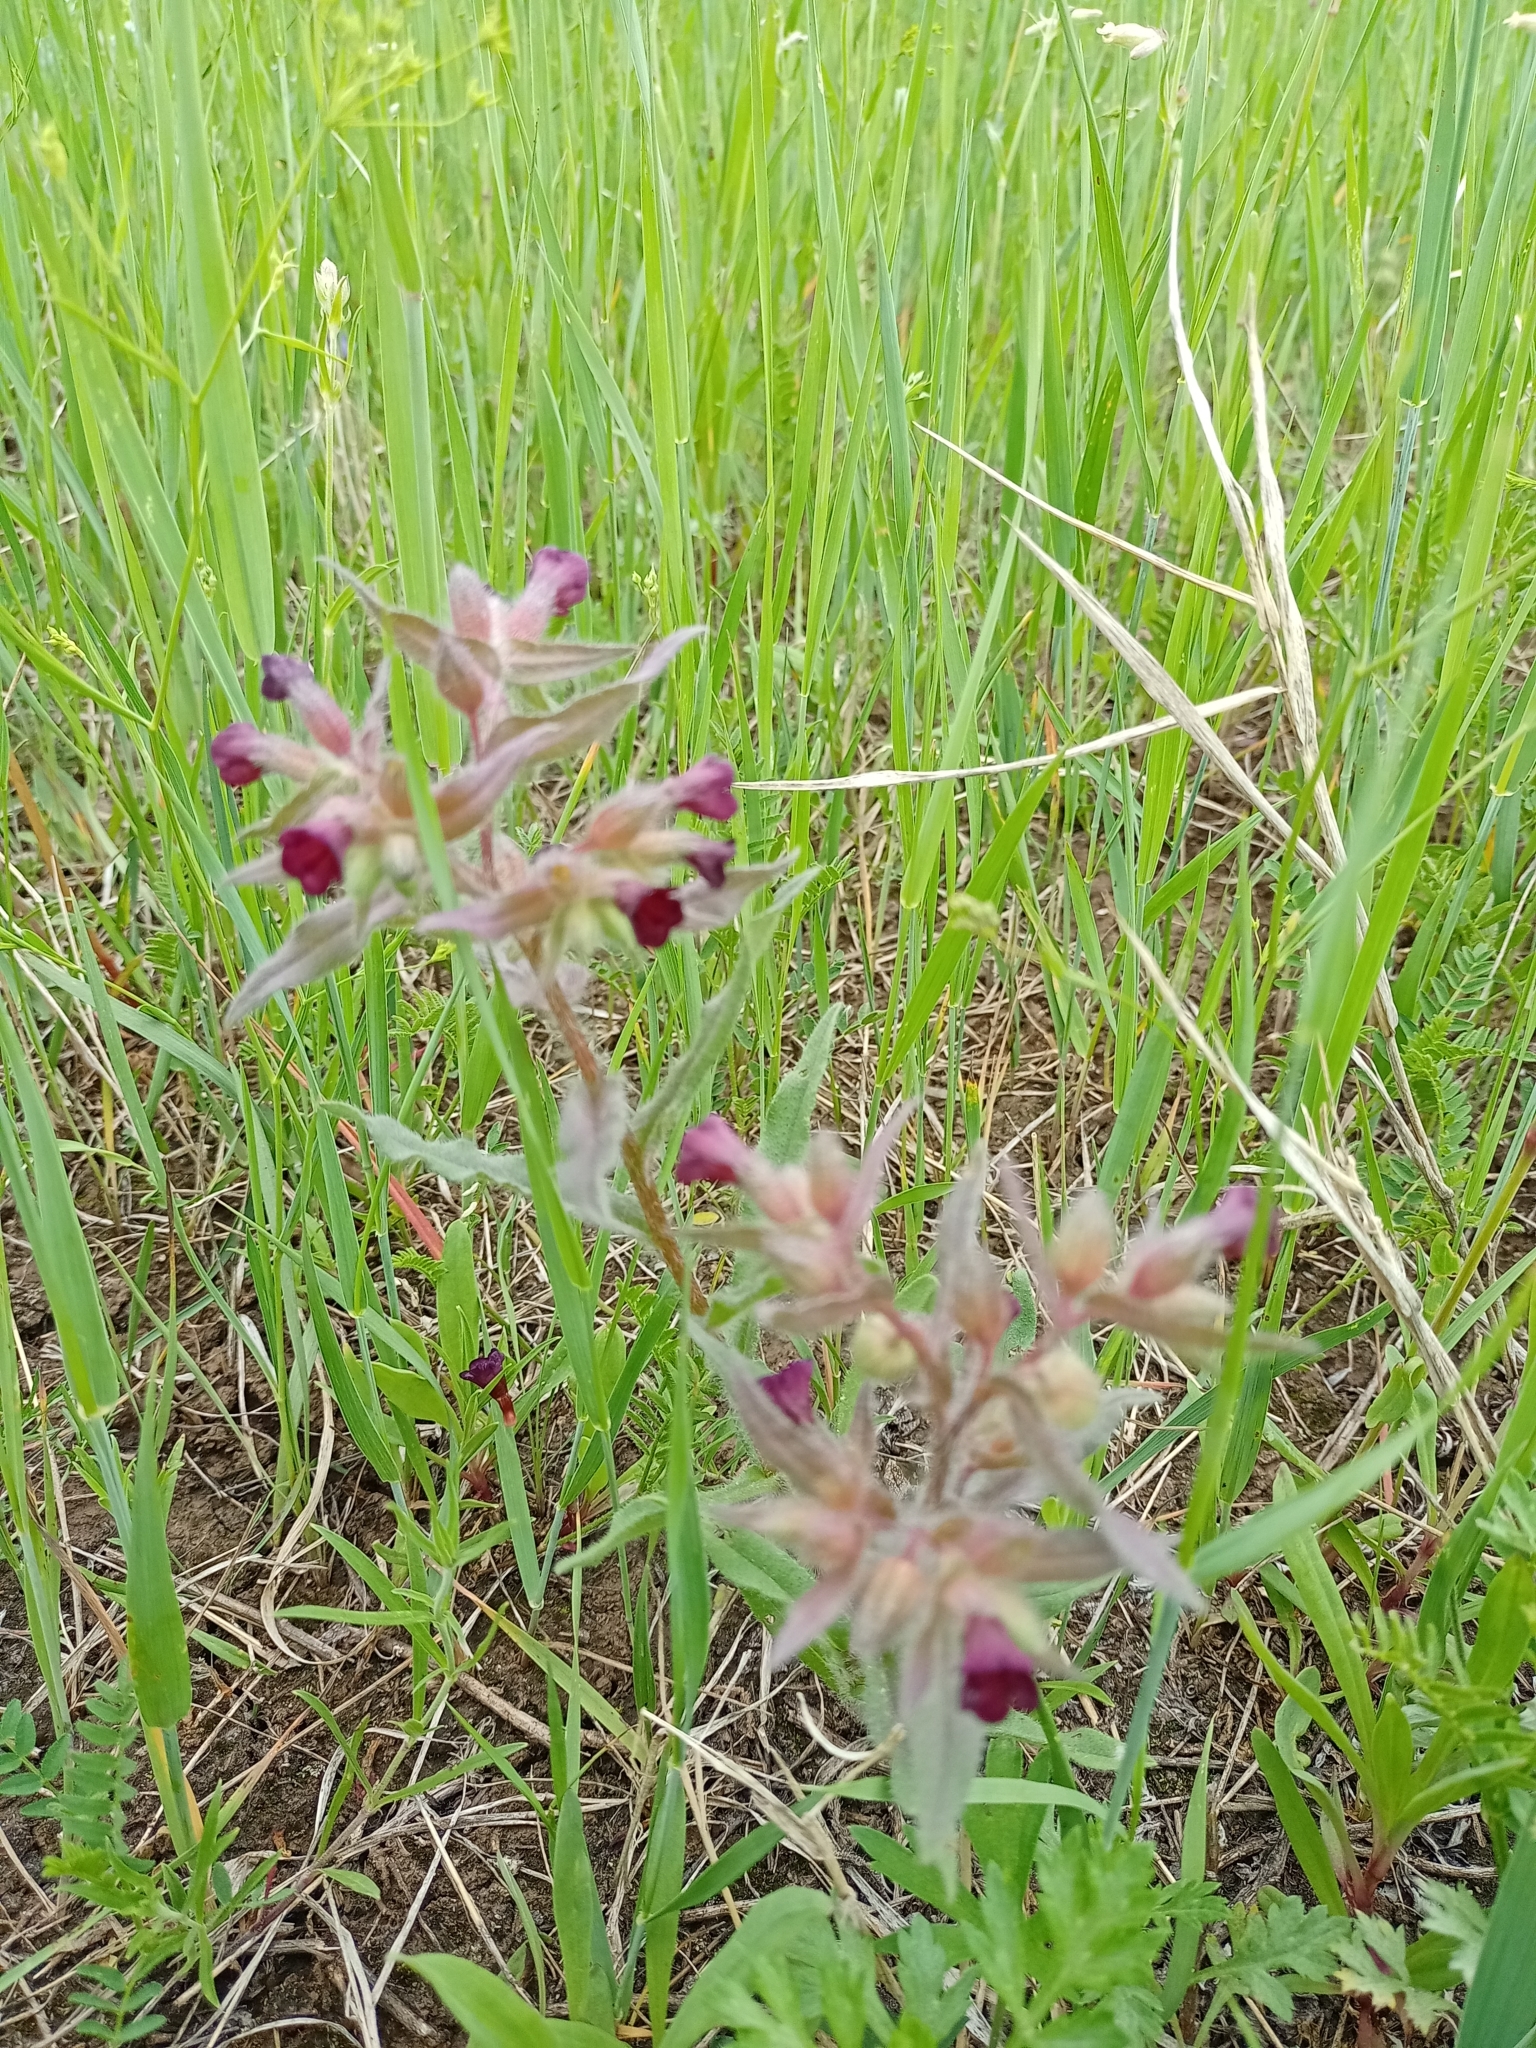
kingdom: Plantae
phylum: Tracheophyta
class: Magnoliopsida
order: Boraginales
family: Boraginaceae
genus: Nonea
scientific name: Nonea pulla
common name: Brown nonea
